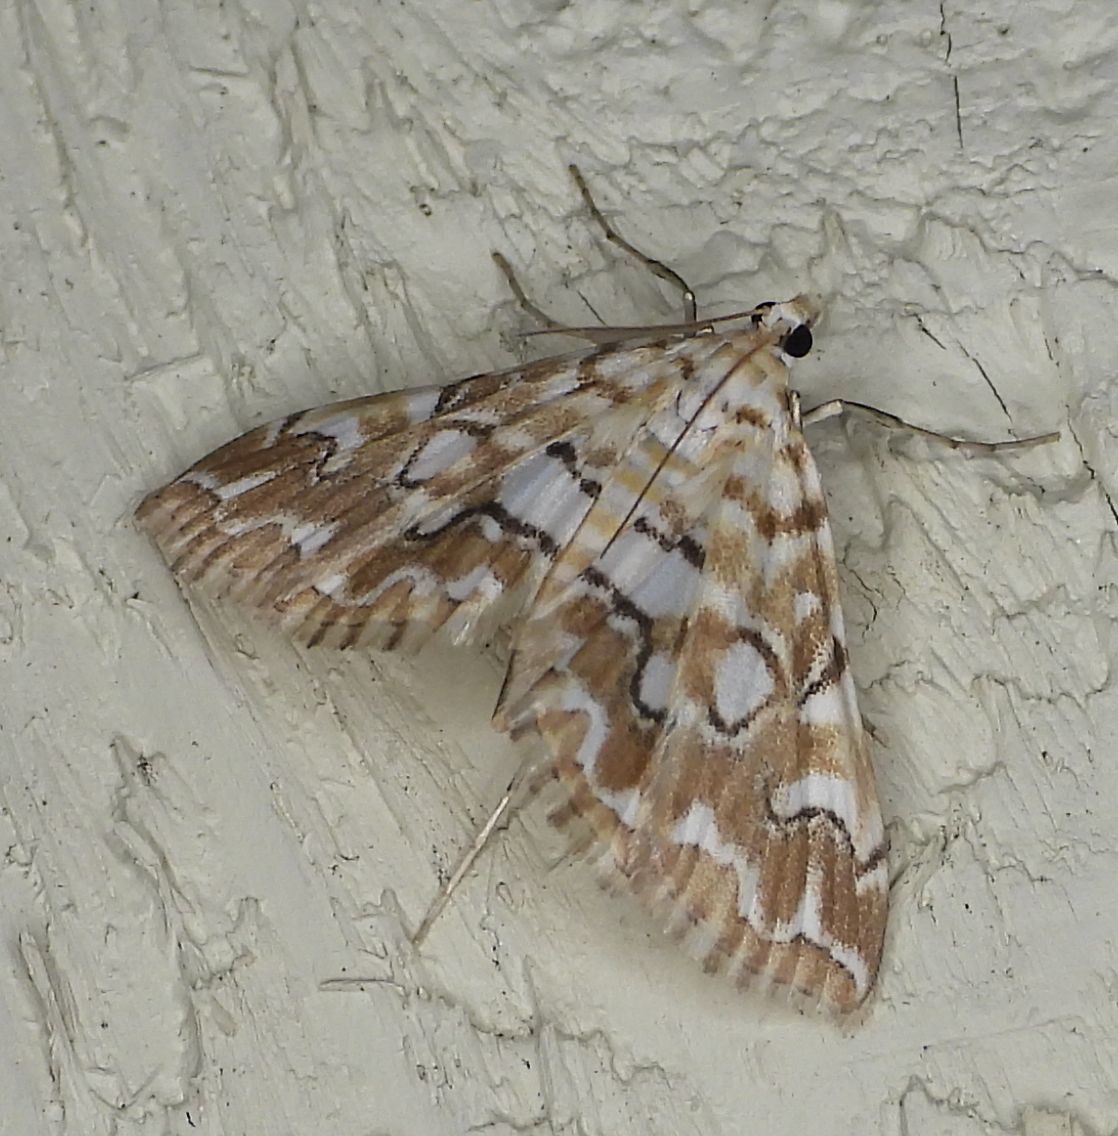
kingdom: Animalia
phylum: Arthropoda
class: Insecta
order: Lepidoptera
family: Crambidae
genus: Elophila
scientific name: Elophila icciusalis
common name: Pondside pyralid moth
